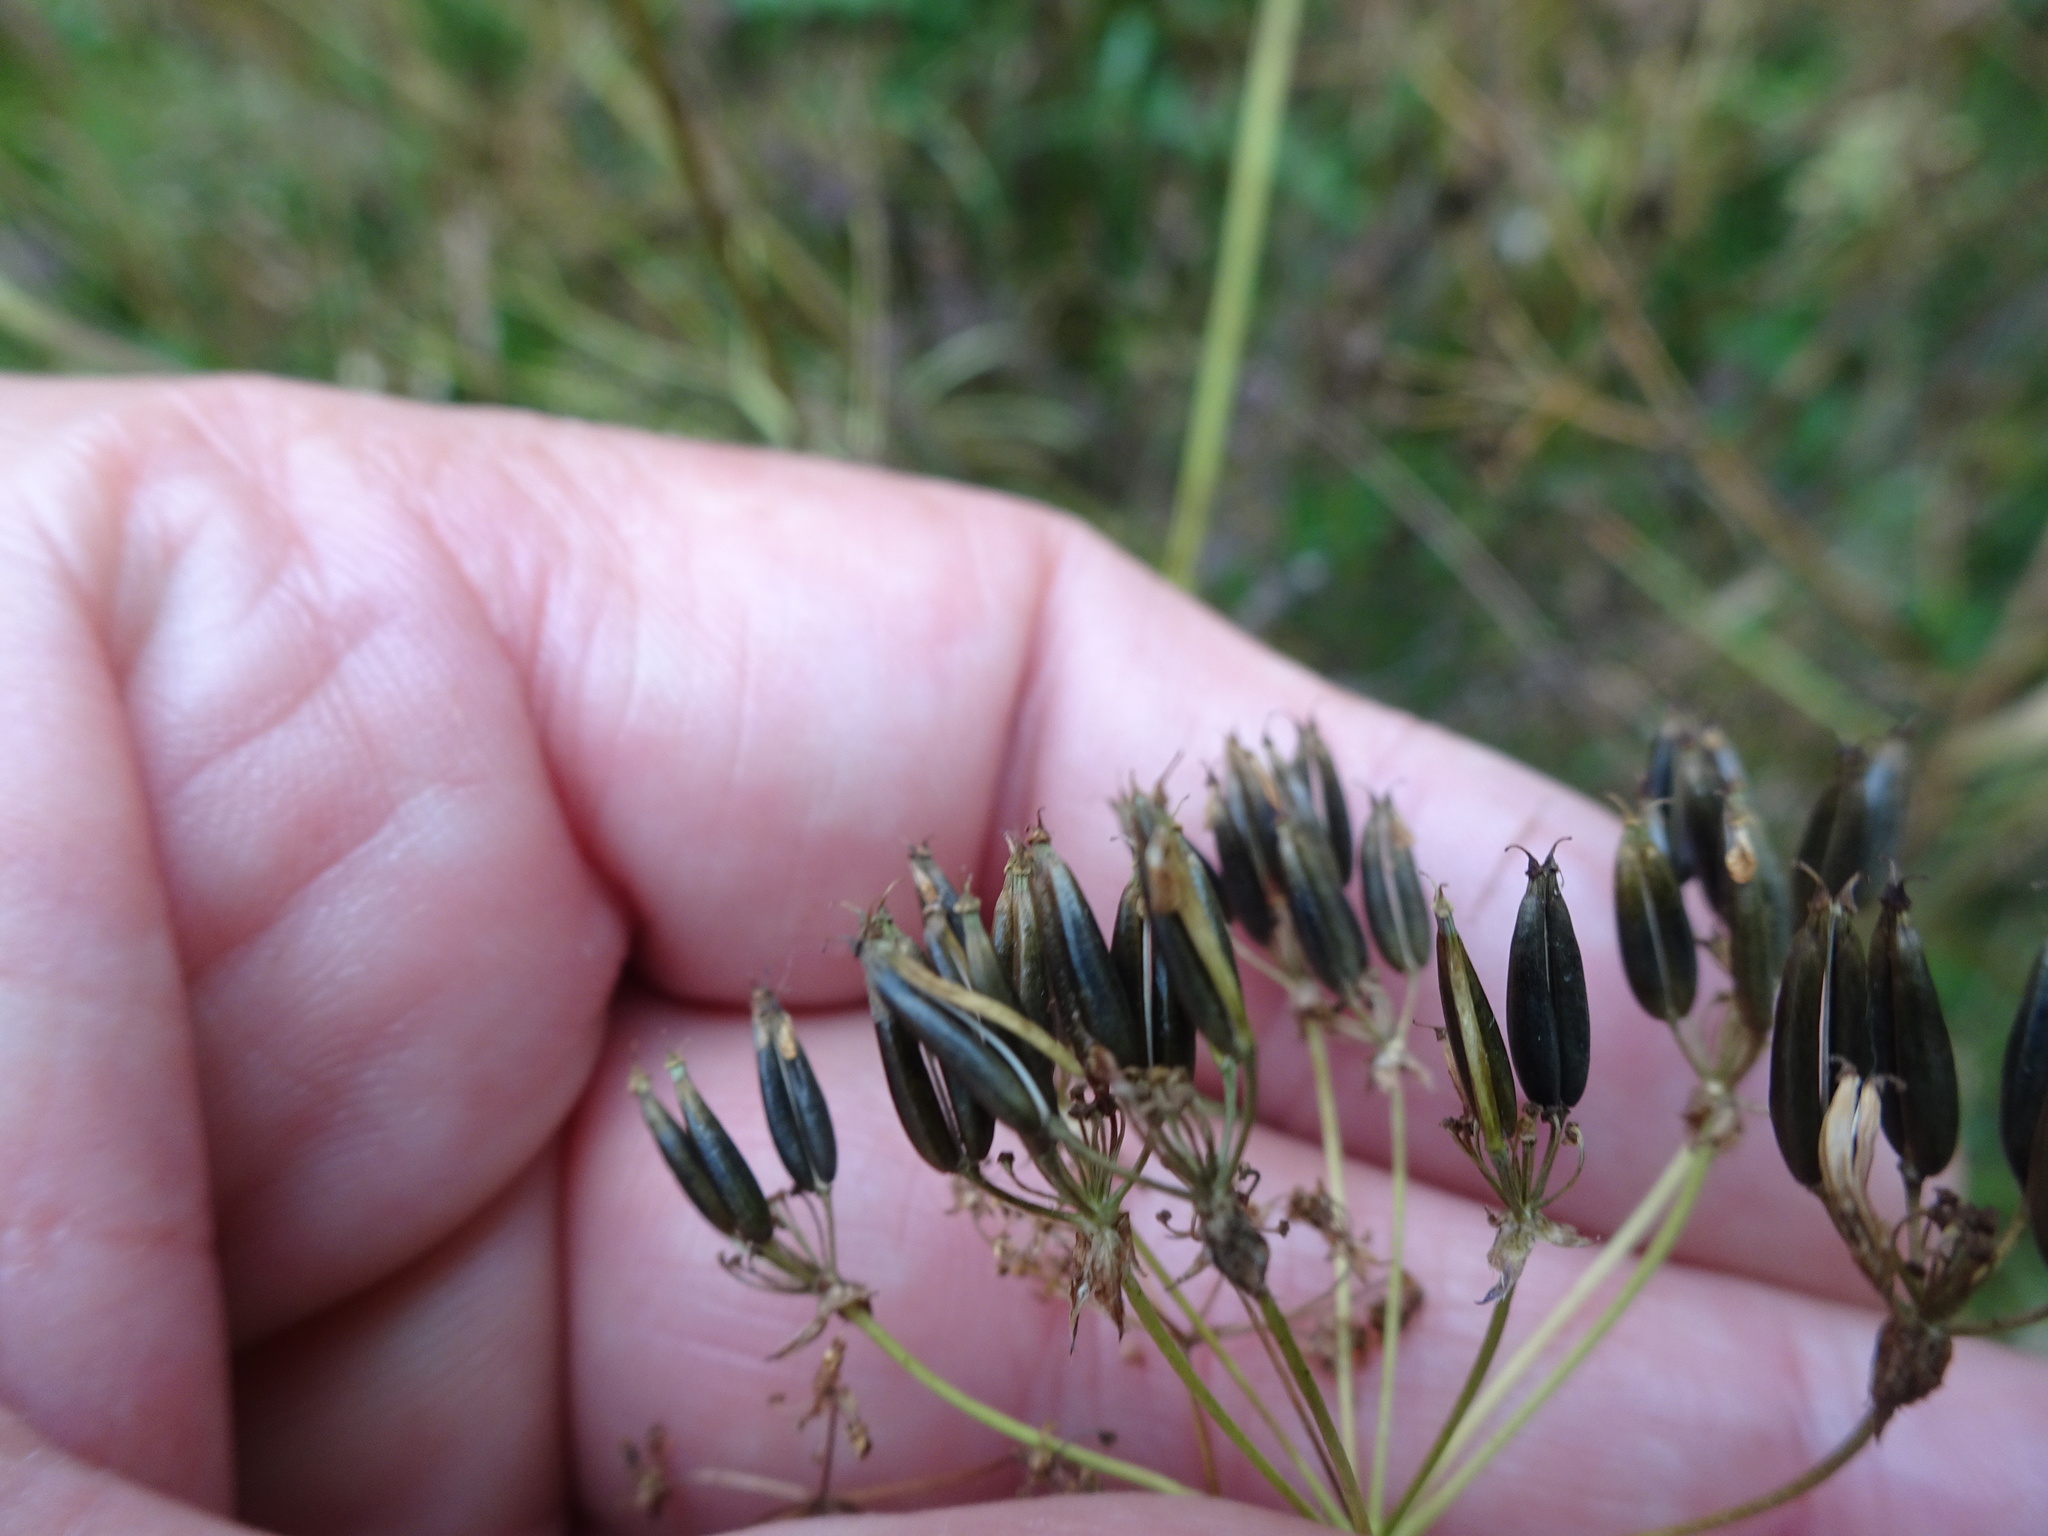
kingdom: Plantae
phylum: Tracheophyta
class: Magnoliopsida
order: Apiales
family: Apiaceae
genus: Anthriscus
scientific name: Anthriscus sylvestris
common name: Cow parsley
